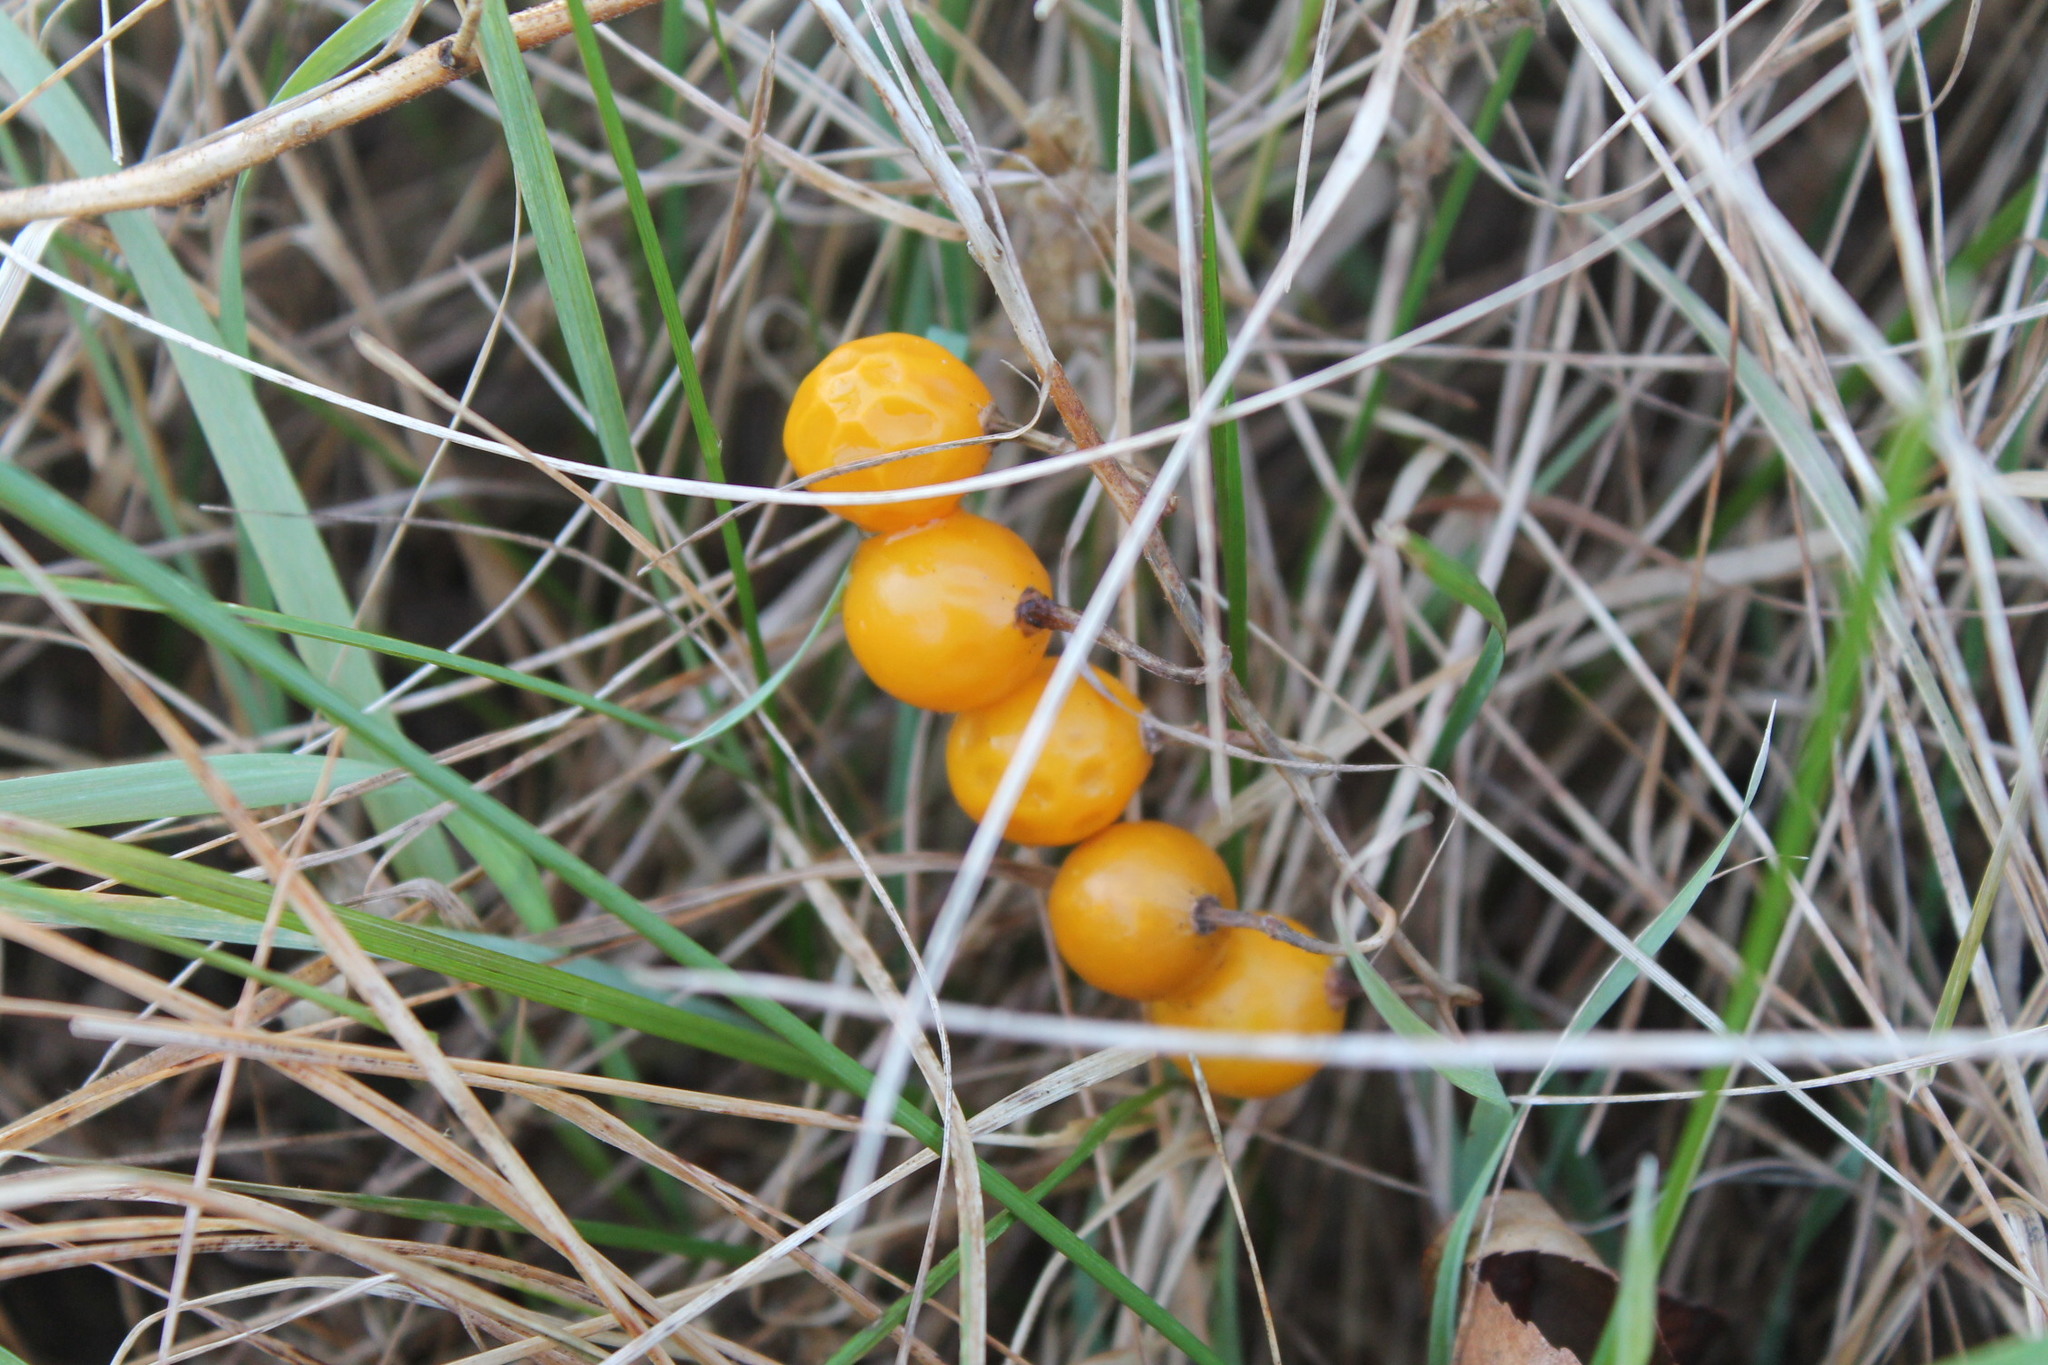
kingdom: Plantae
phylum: Tracheophyta
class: Magnoliopsida
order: Solanales
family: Solanaceae
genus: Solanum
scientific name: Solanum carolinense
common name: Horse-nettle
